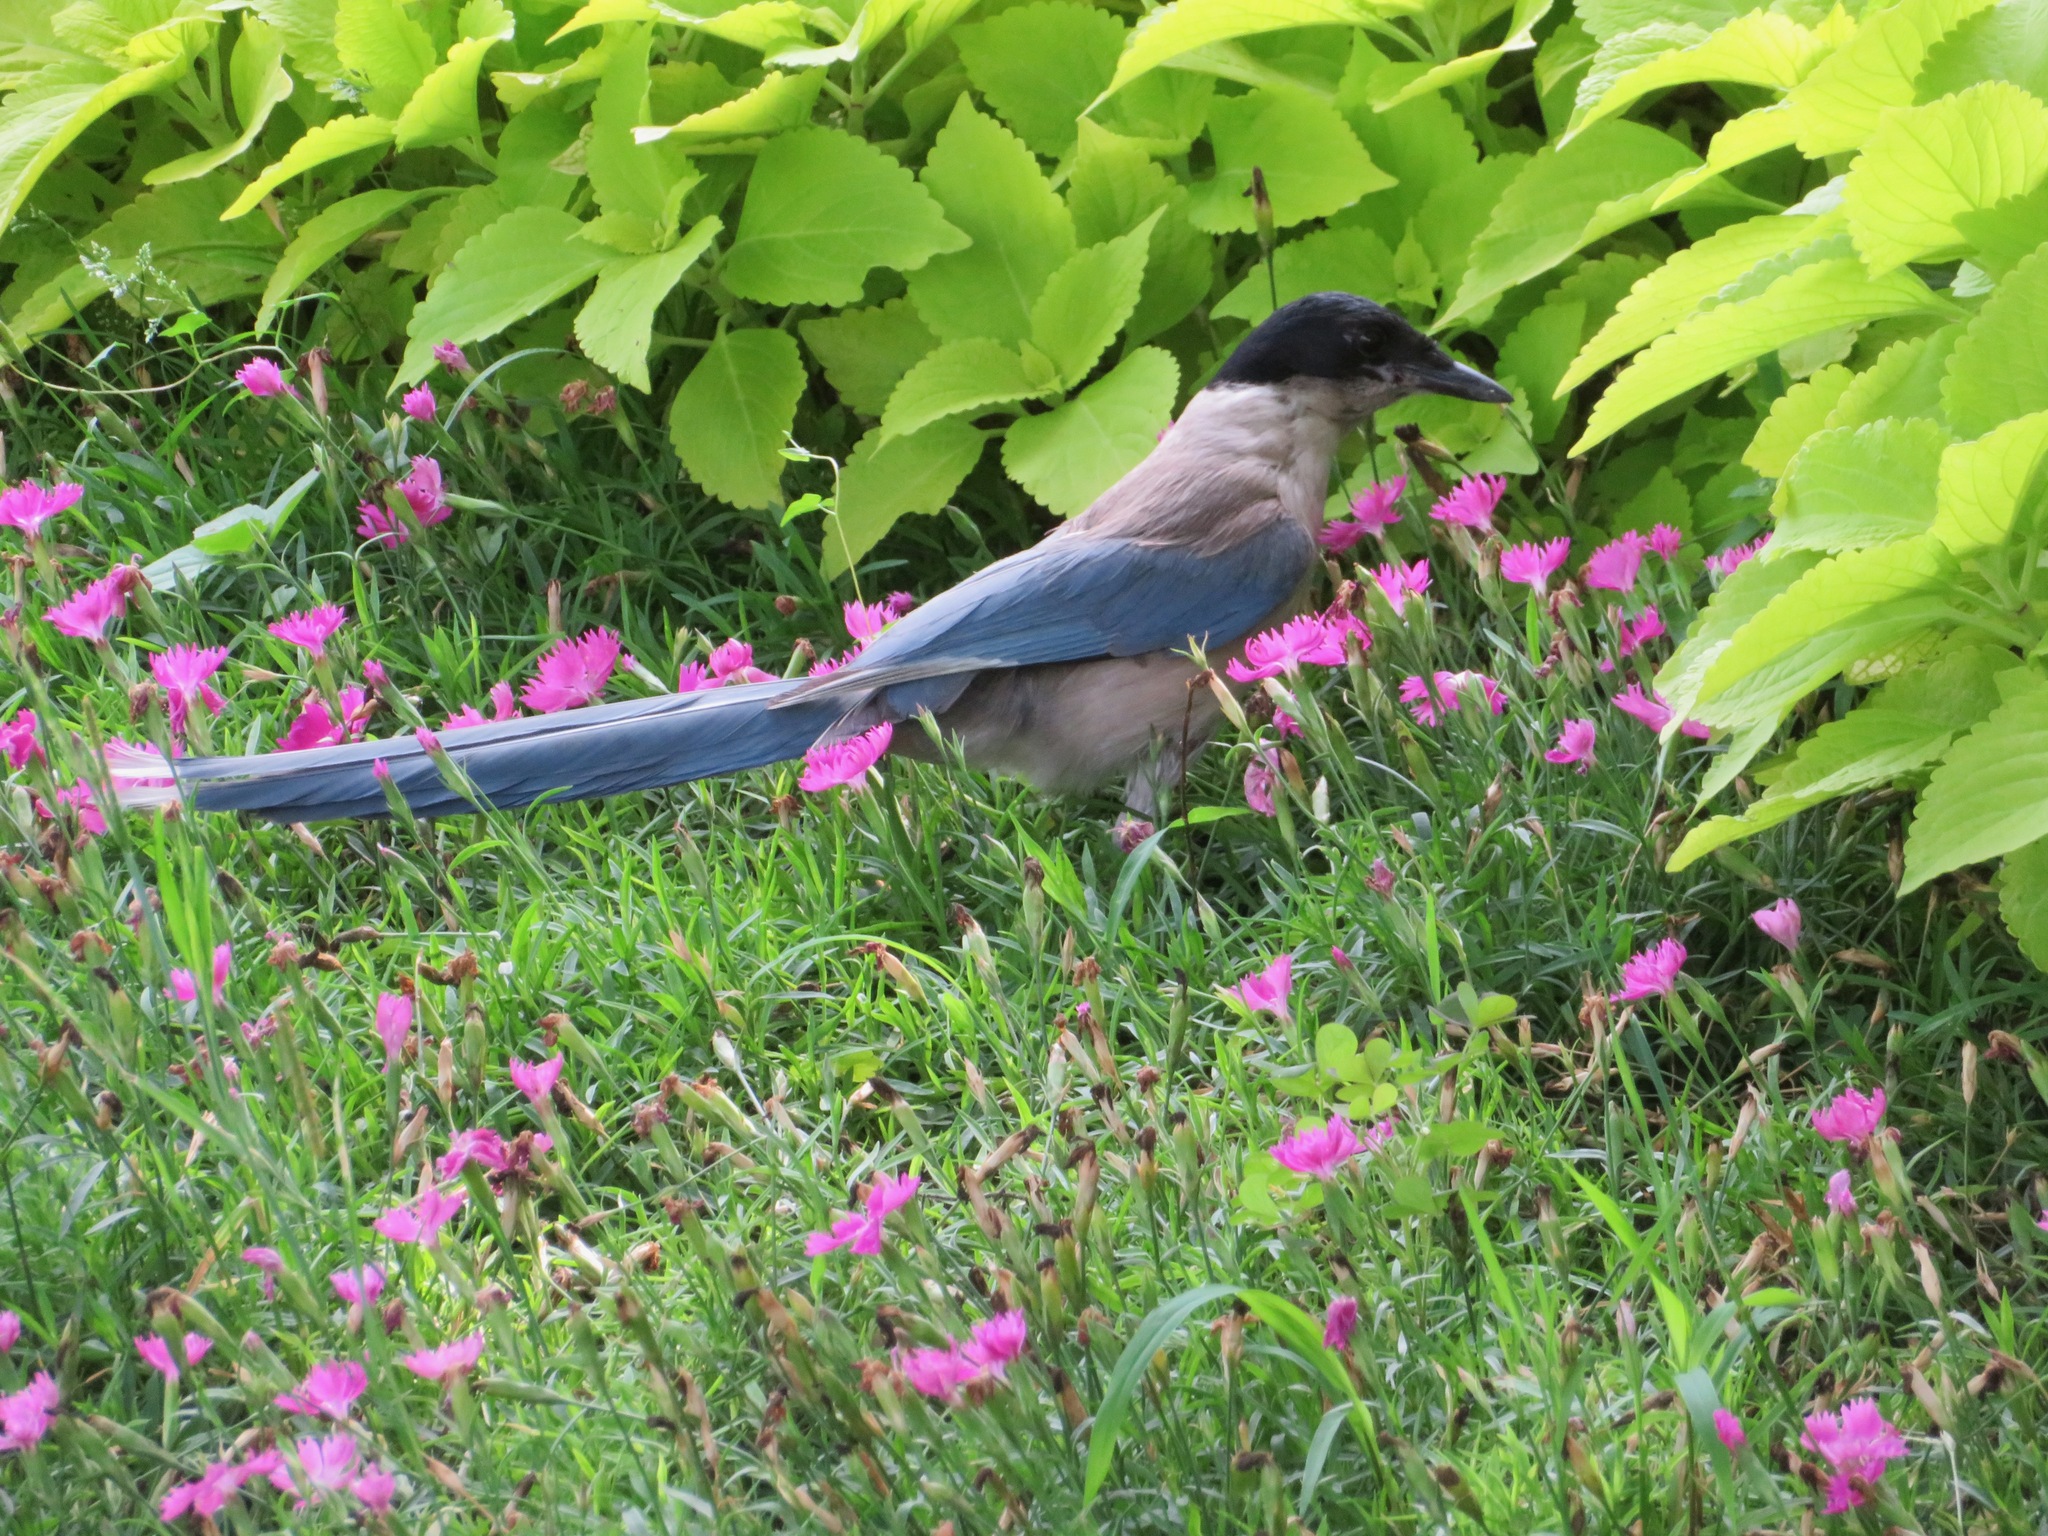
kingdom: Animalia
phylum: Chordata
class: Aves
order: Passeriformes
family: Corvidae
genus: Cyanopica
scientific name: Cyanopica cyanus
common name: Azure-winged magpie
